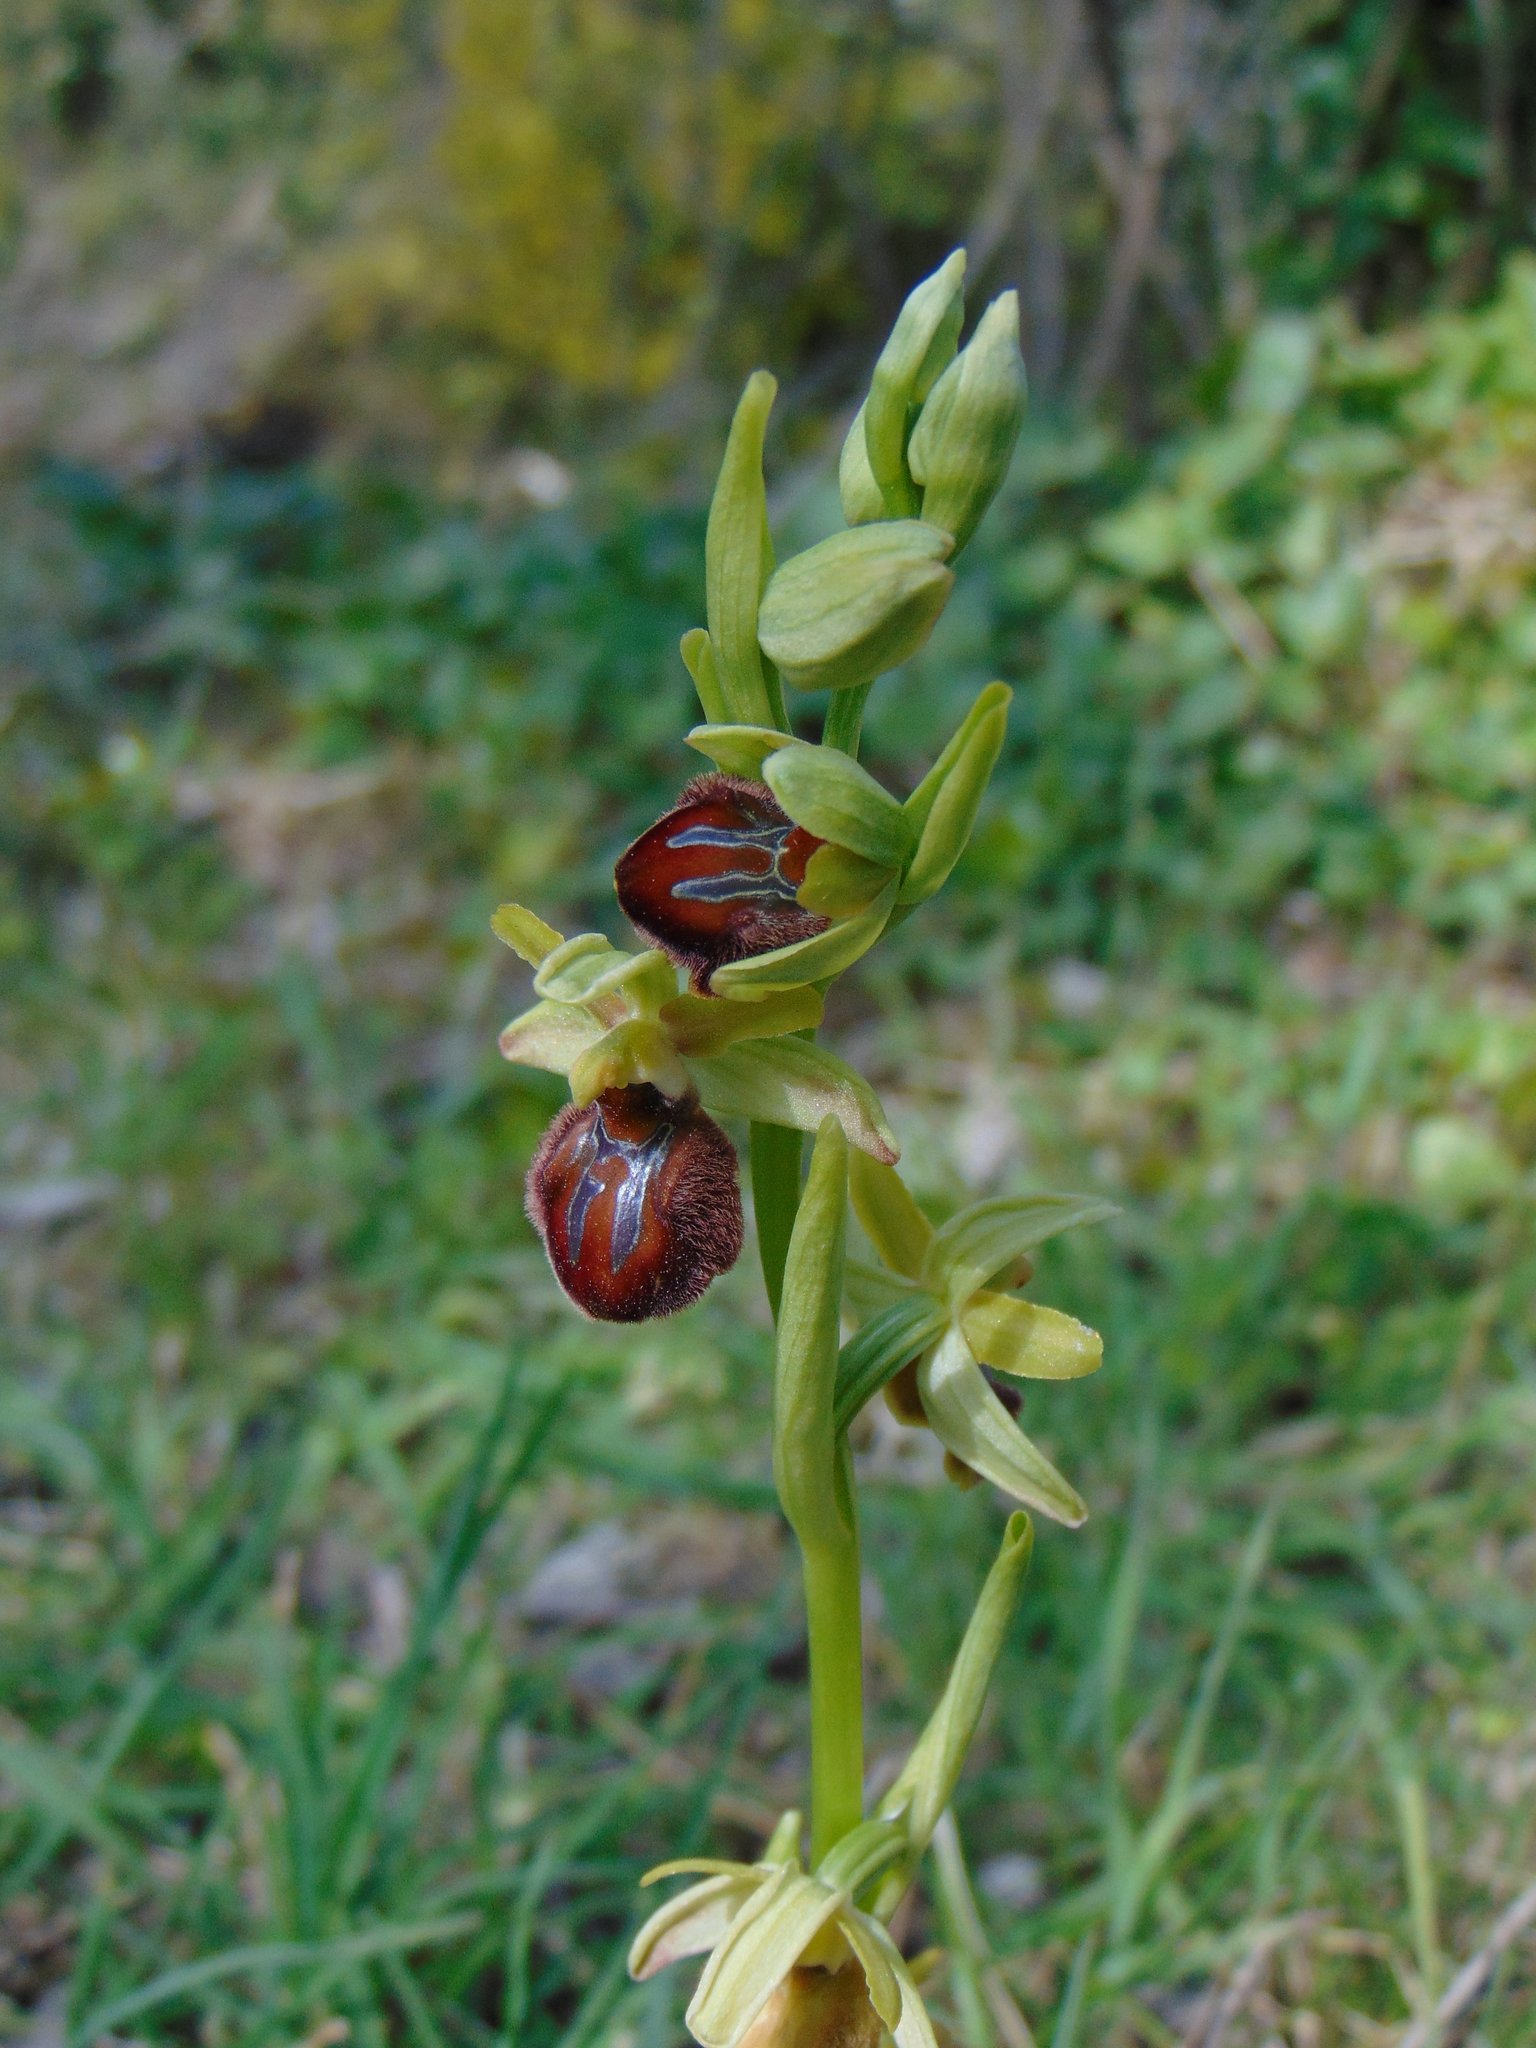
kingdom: Plantae
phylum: Tracheophyta
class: Liliopsida
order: Asparagales
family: Orchidaceae
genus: Ophrys
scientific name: Ophrys sphegodes
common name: Early spider-orchid
